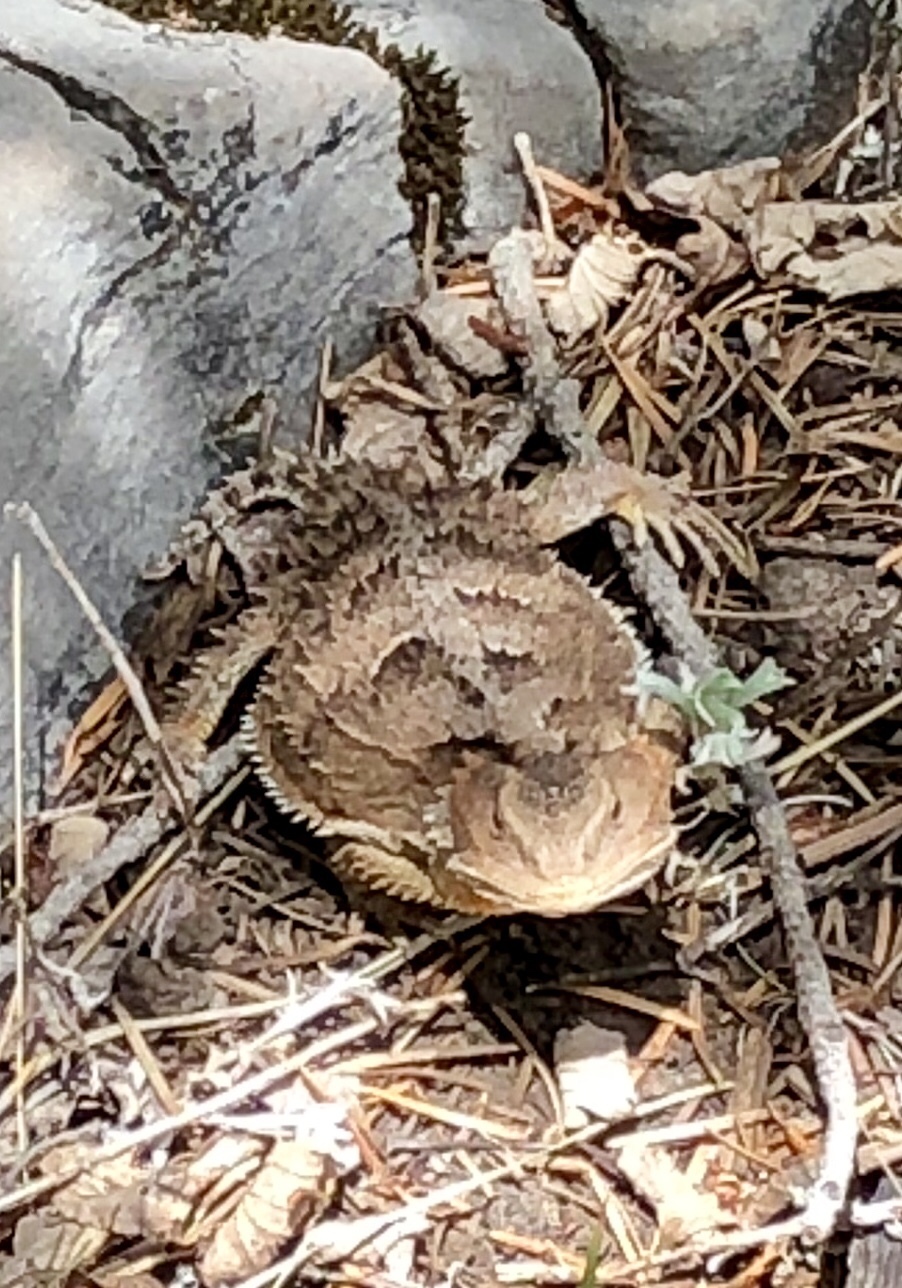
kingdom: Animalia
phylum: Chordata
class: Squamata
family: Phrynosomatidae
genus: Phrynosoma
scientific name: Phrynosoma hernandesi
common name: Greater short-horned lizard
